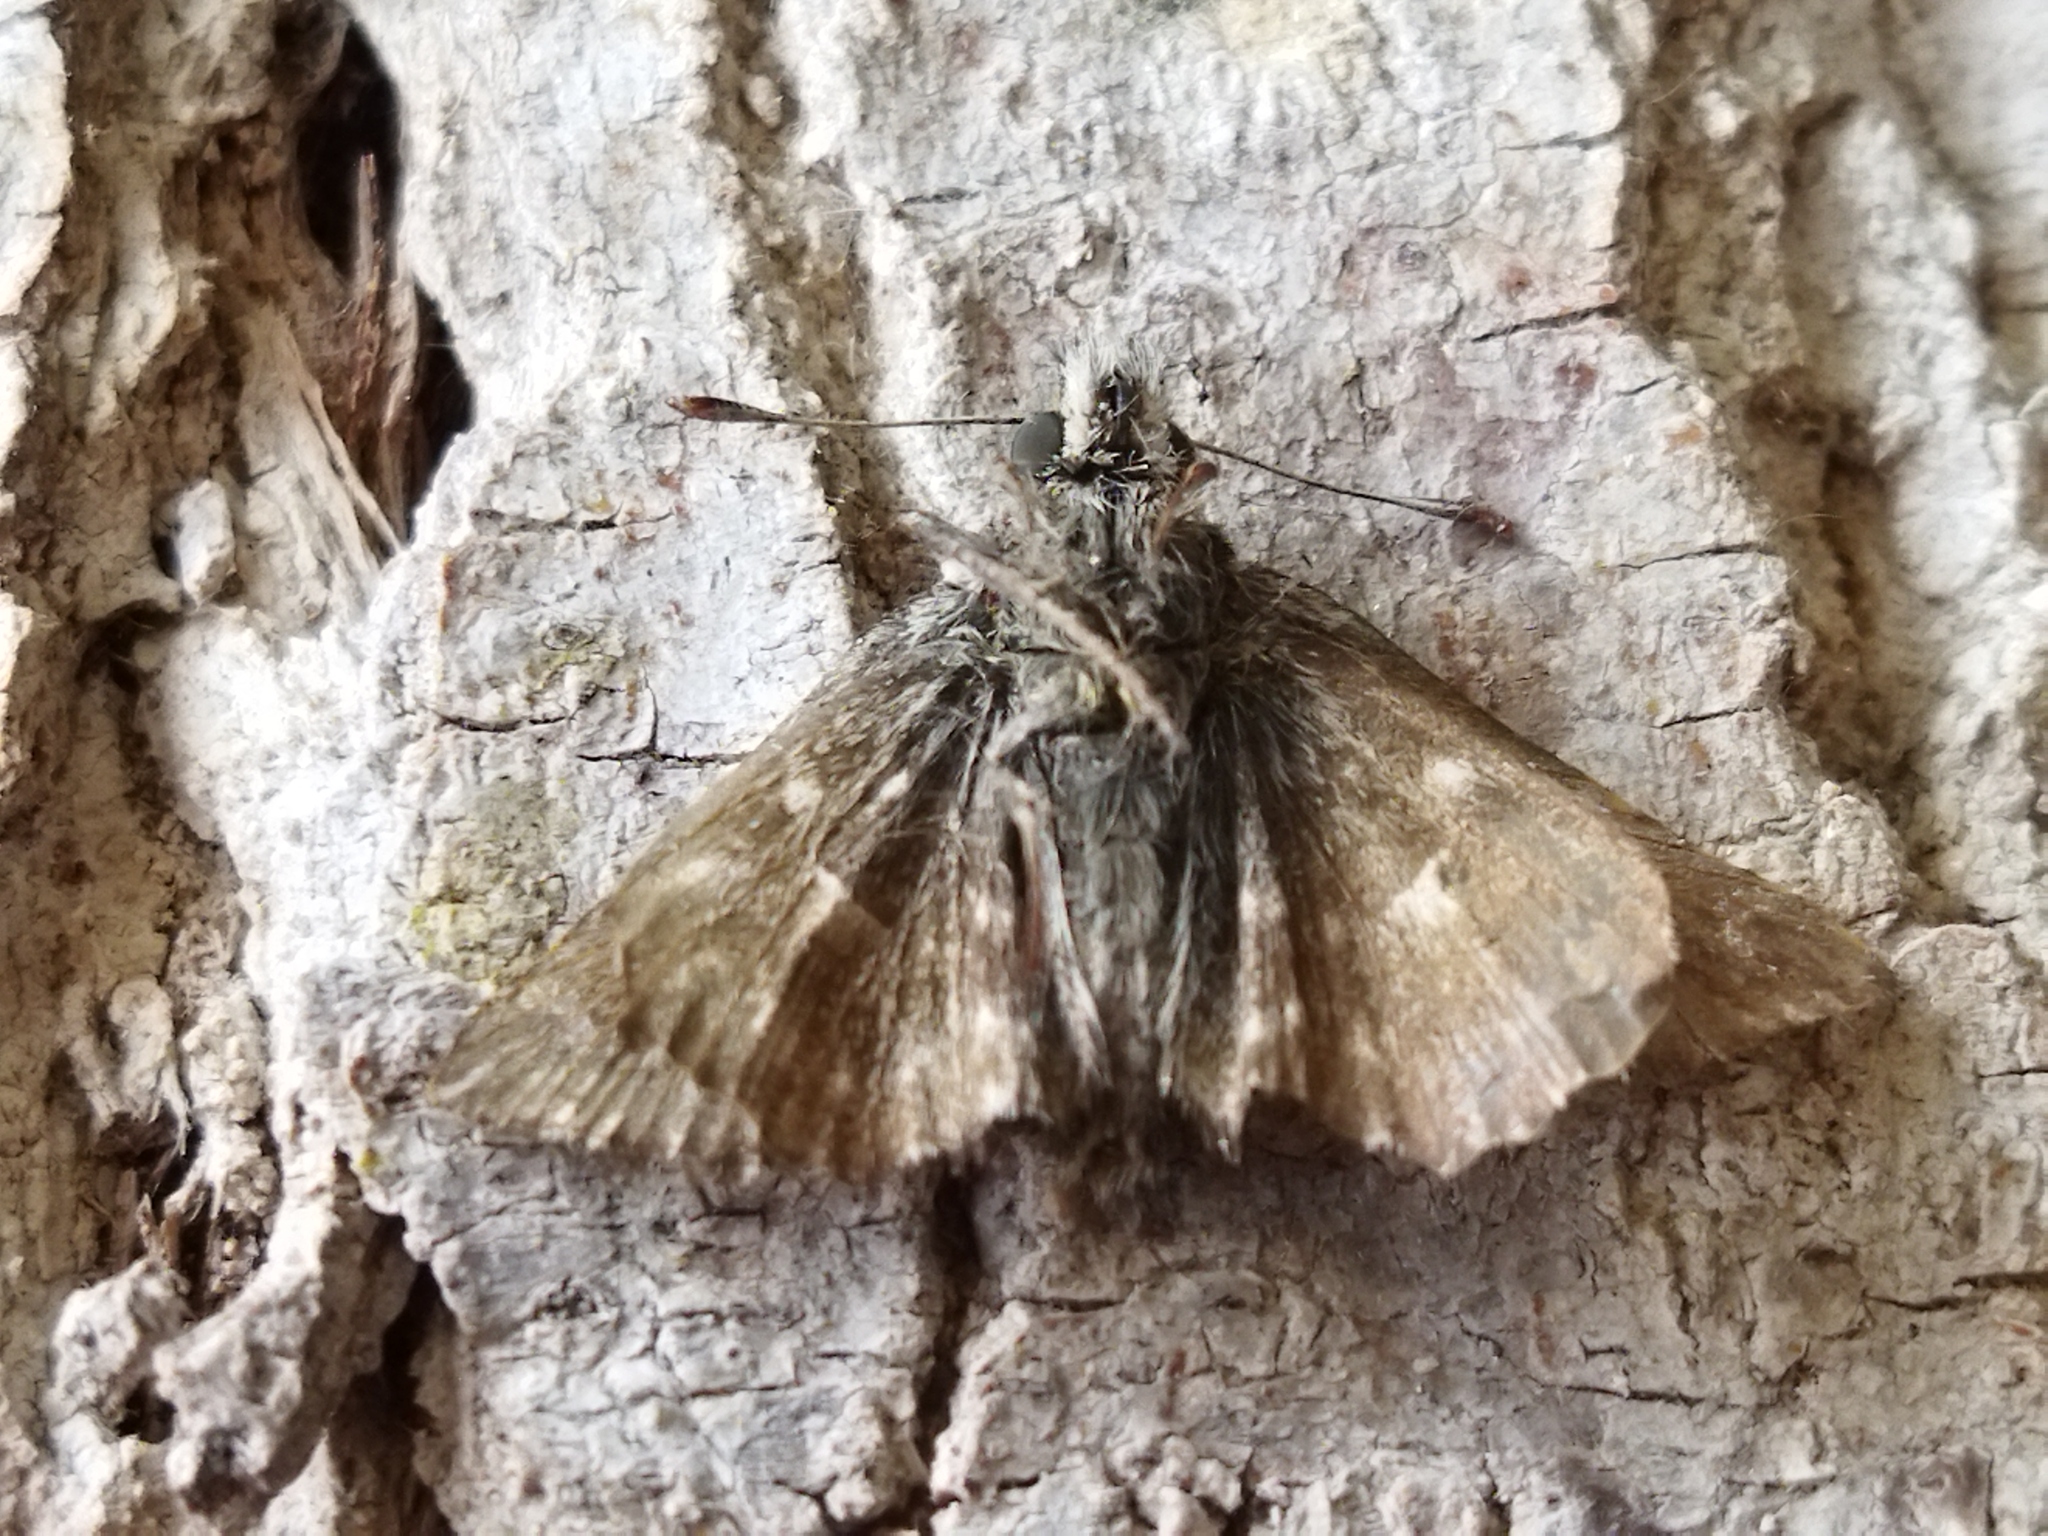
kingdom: Animalia
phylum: Arthropoda
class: Insecta
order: Lepidoptera
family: Hesperiidae
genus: Carcharodus
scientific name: Carcharodus alceae
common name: Mallow skipper
